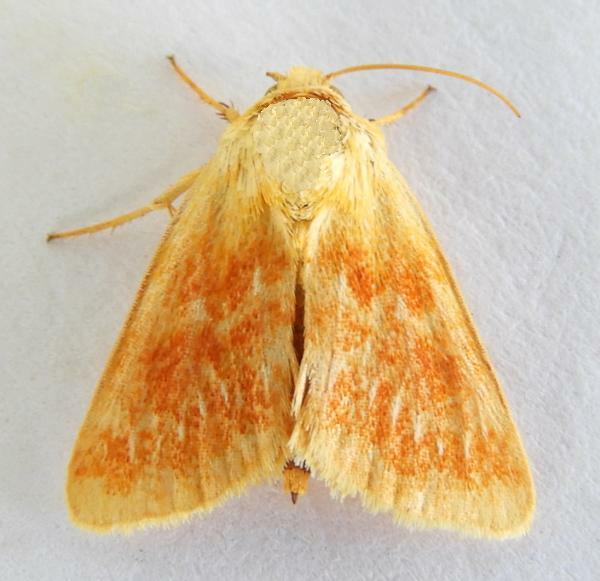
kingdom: Animalia
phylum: Arthropoda
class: Insecta
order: Lepidoptera
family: Noctuidae
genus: Schinia
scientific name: Schinia fulleri
